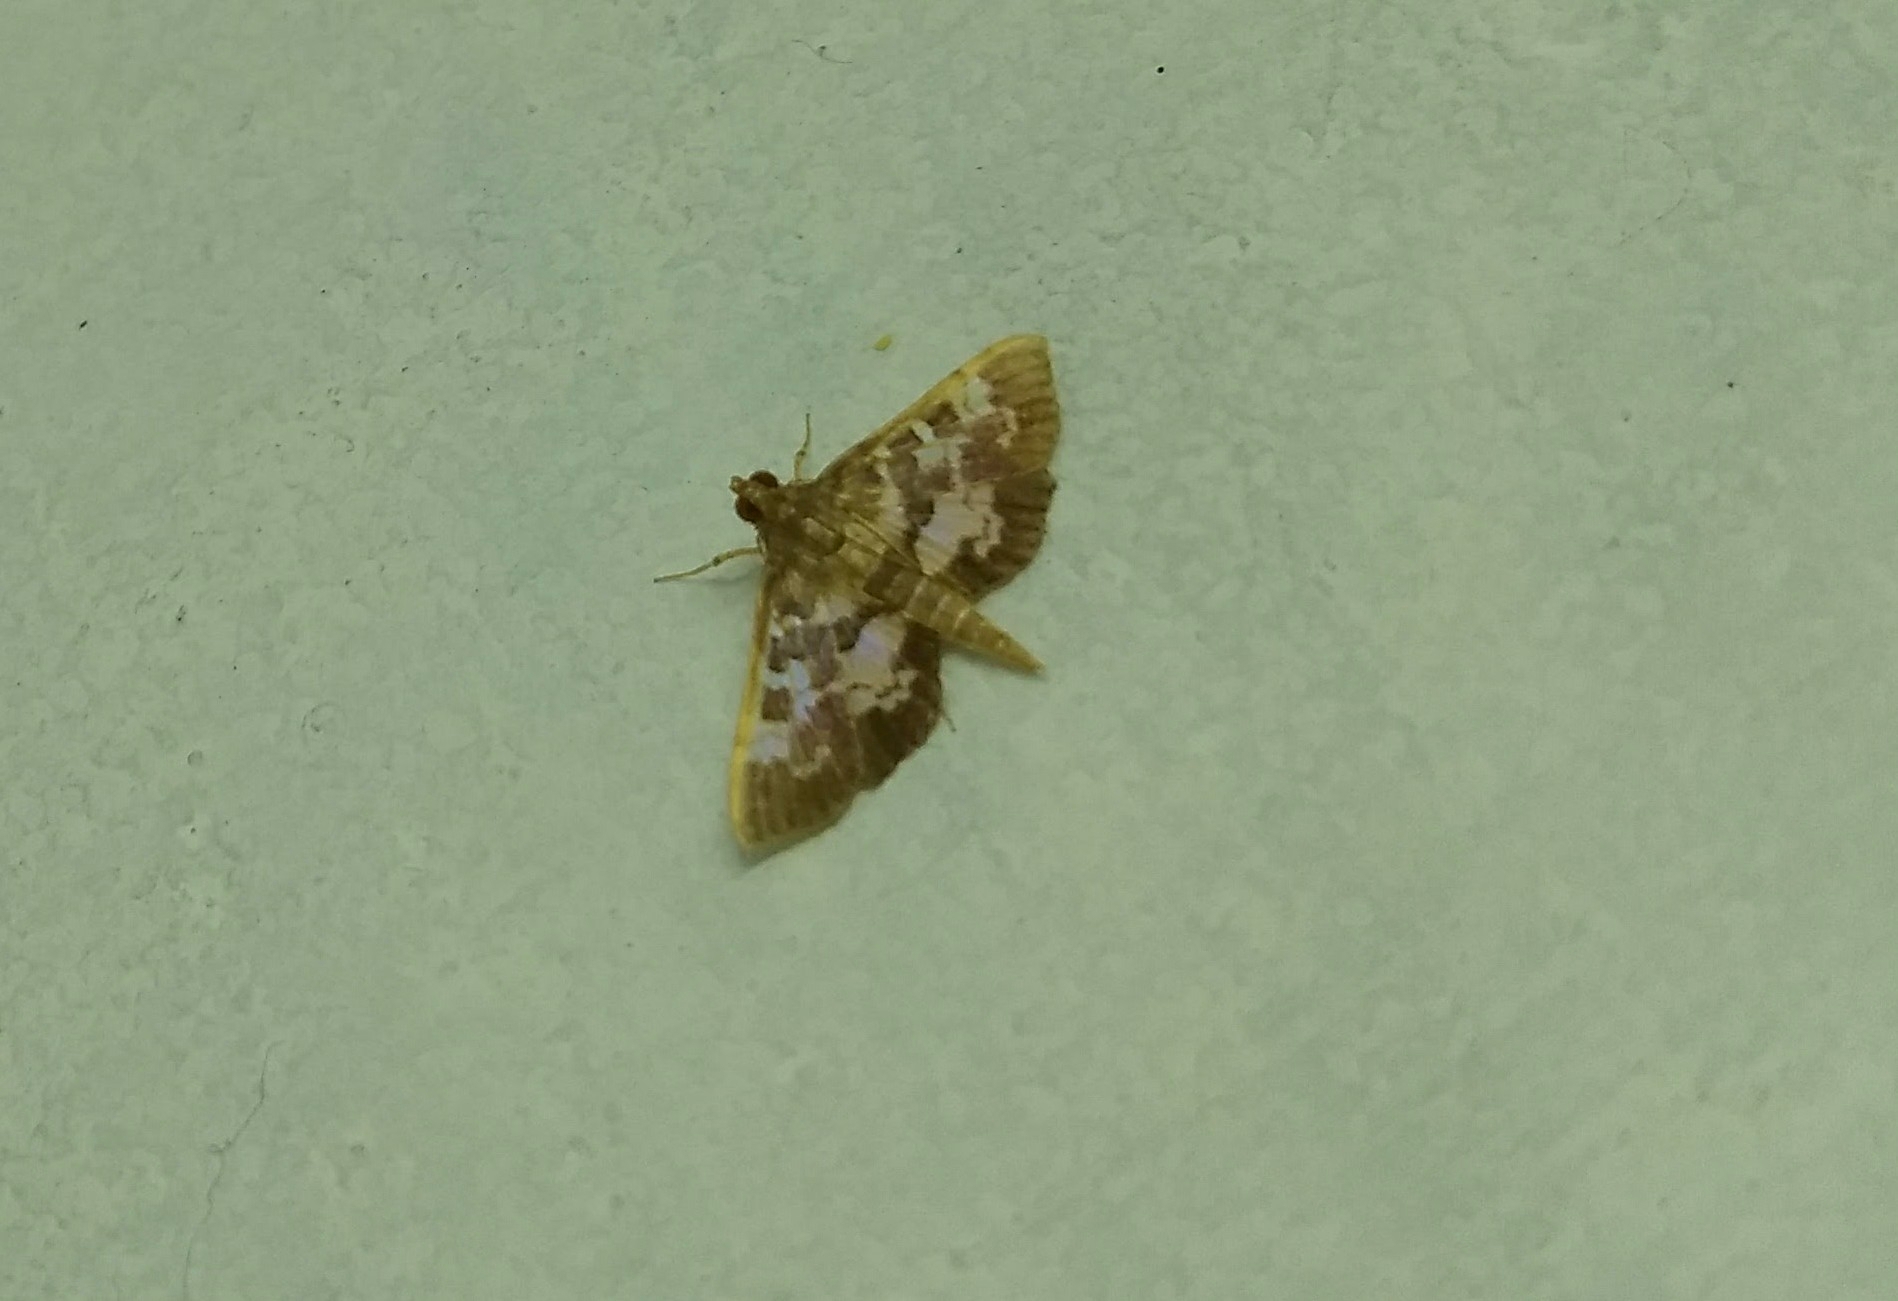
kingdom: Animalia
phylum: Arthropoda
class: Insecta
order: Lepidoptera
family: Crambidae
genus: Sameodes
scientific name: Sameodes cancellalis
